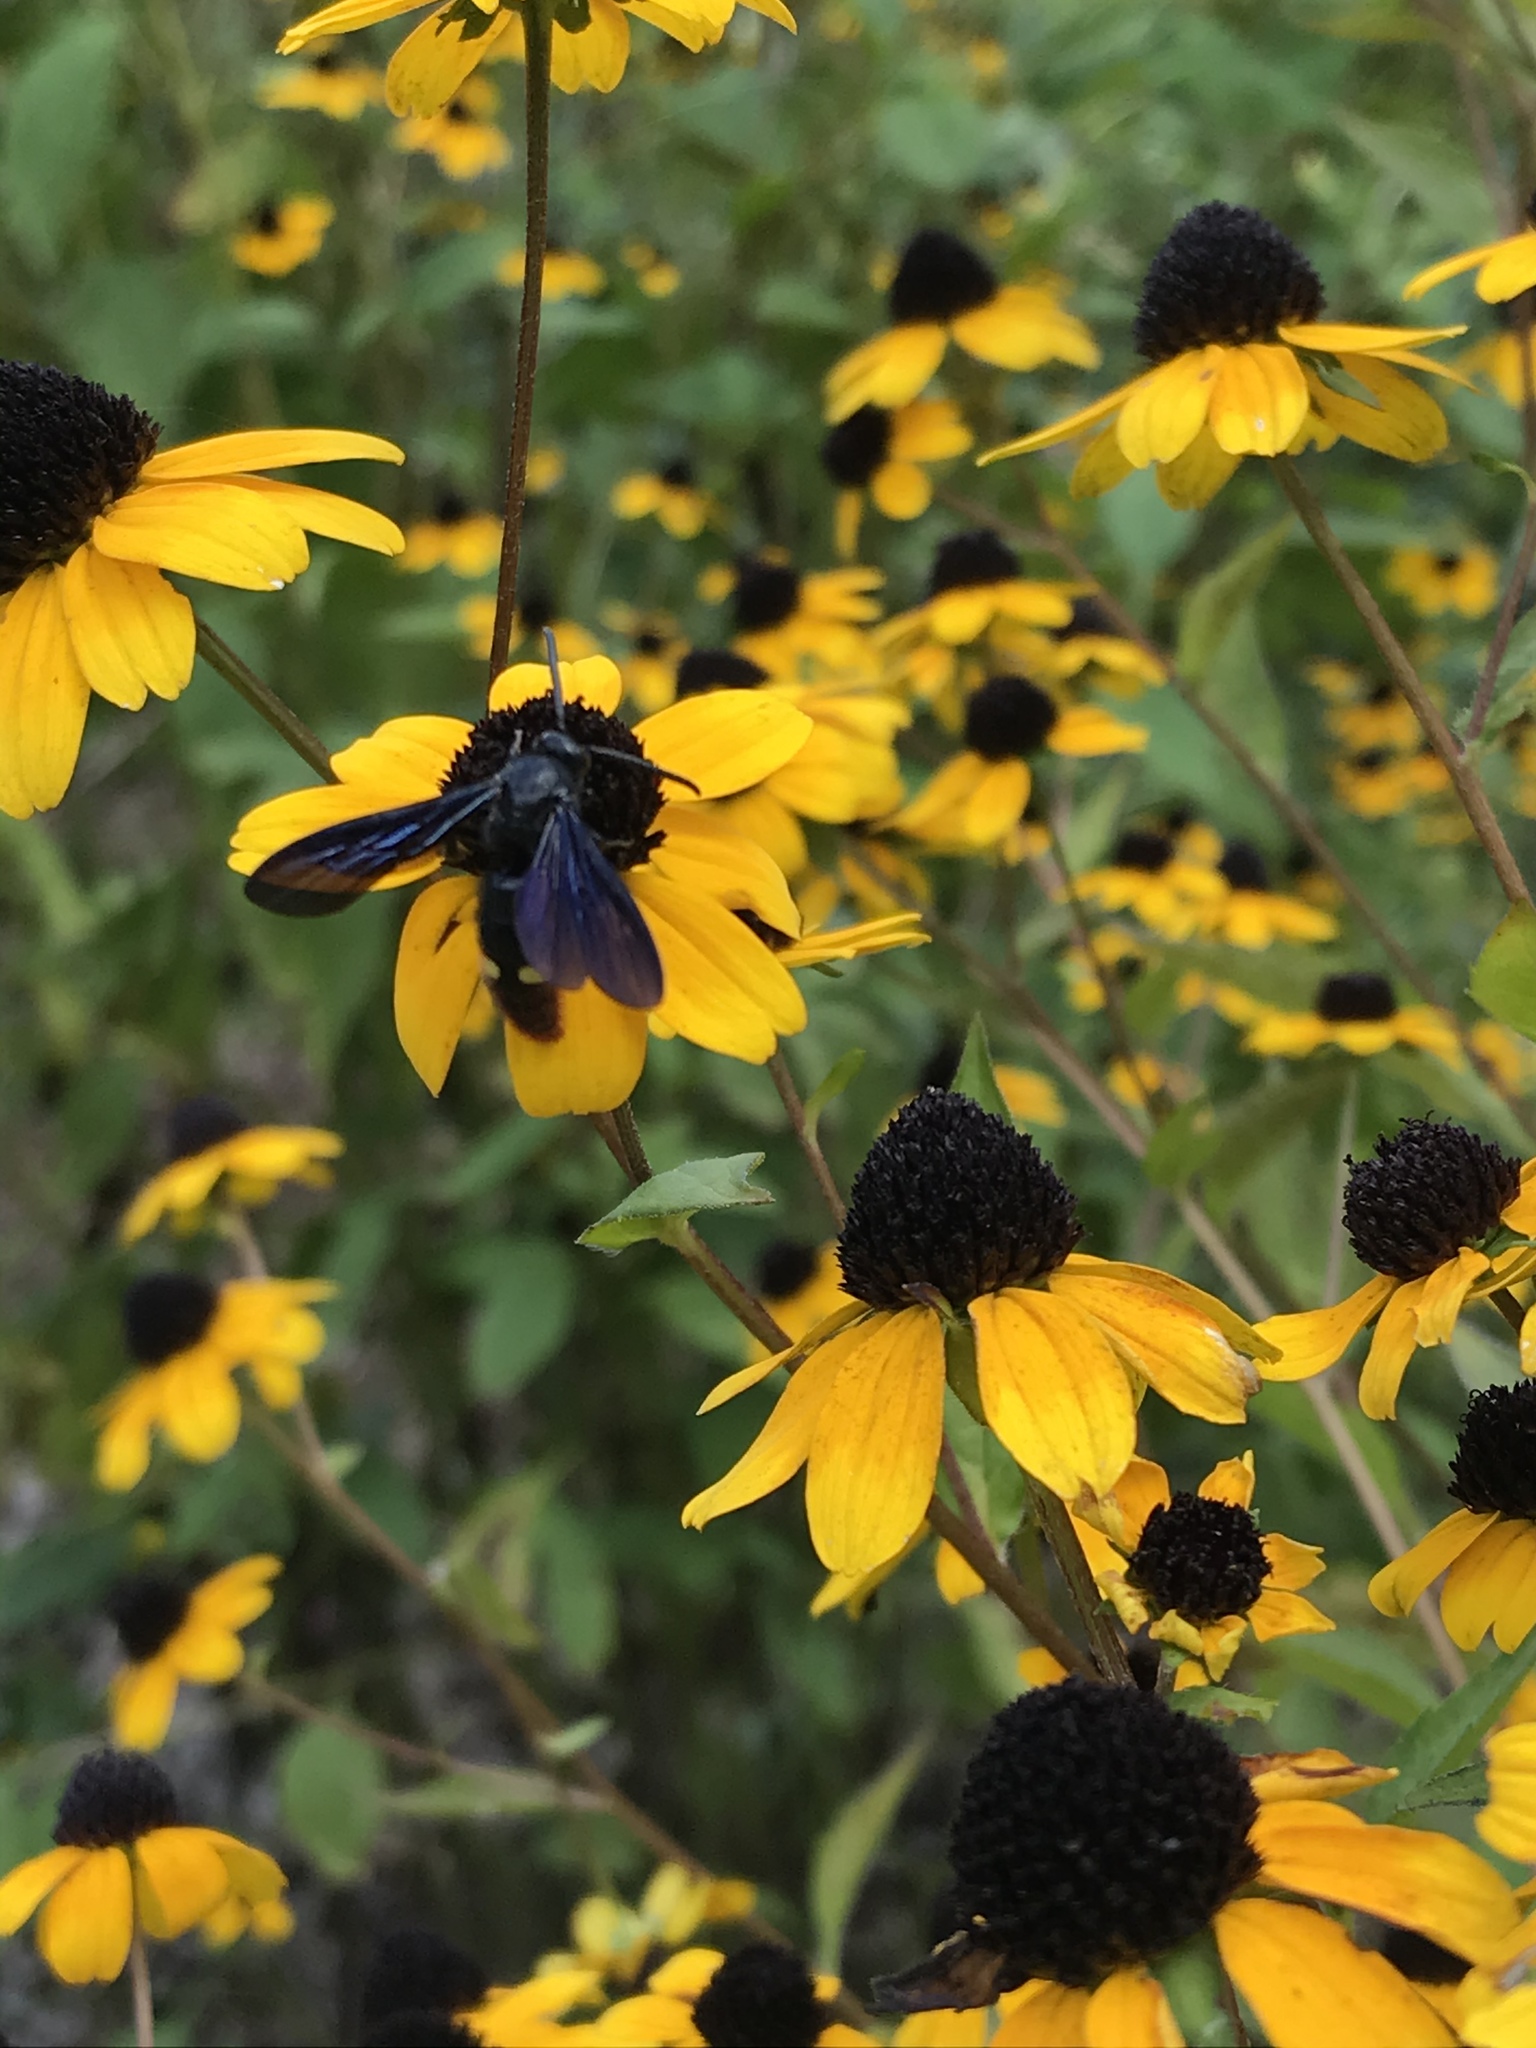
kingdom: Animalia
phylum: Arthropoda
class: Insecta
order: Hymenoptera
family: Scoliidae
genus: Scolia
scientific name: Scolia dubia
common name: Blue-winged scoliid wasp
